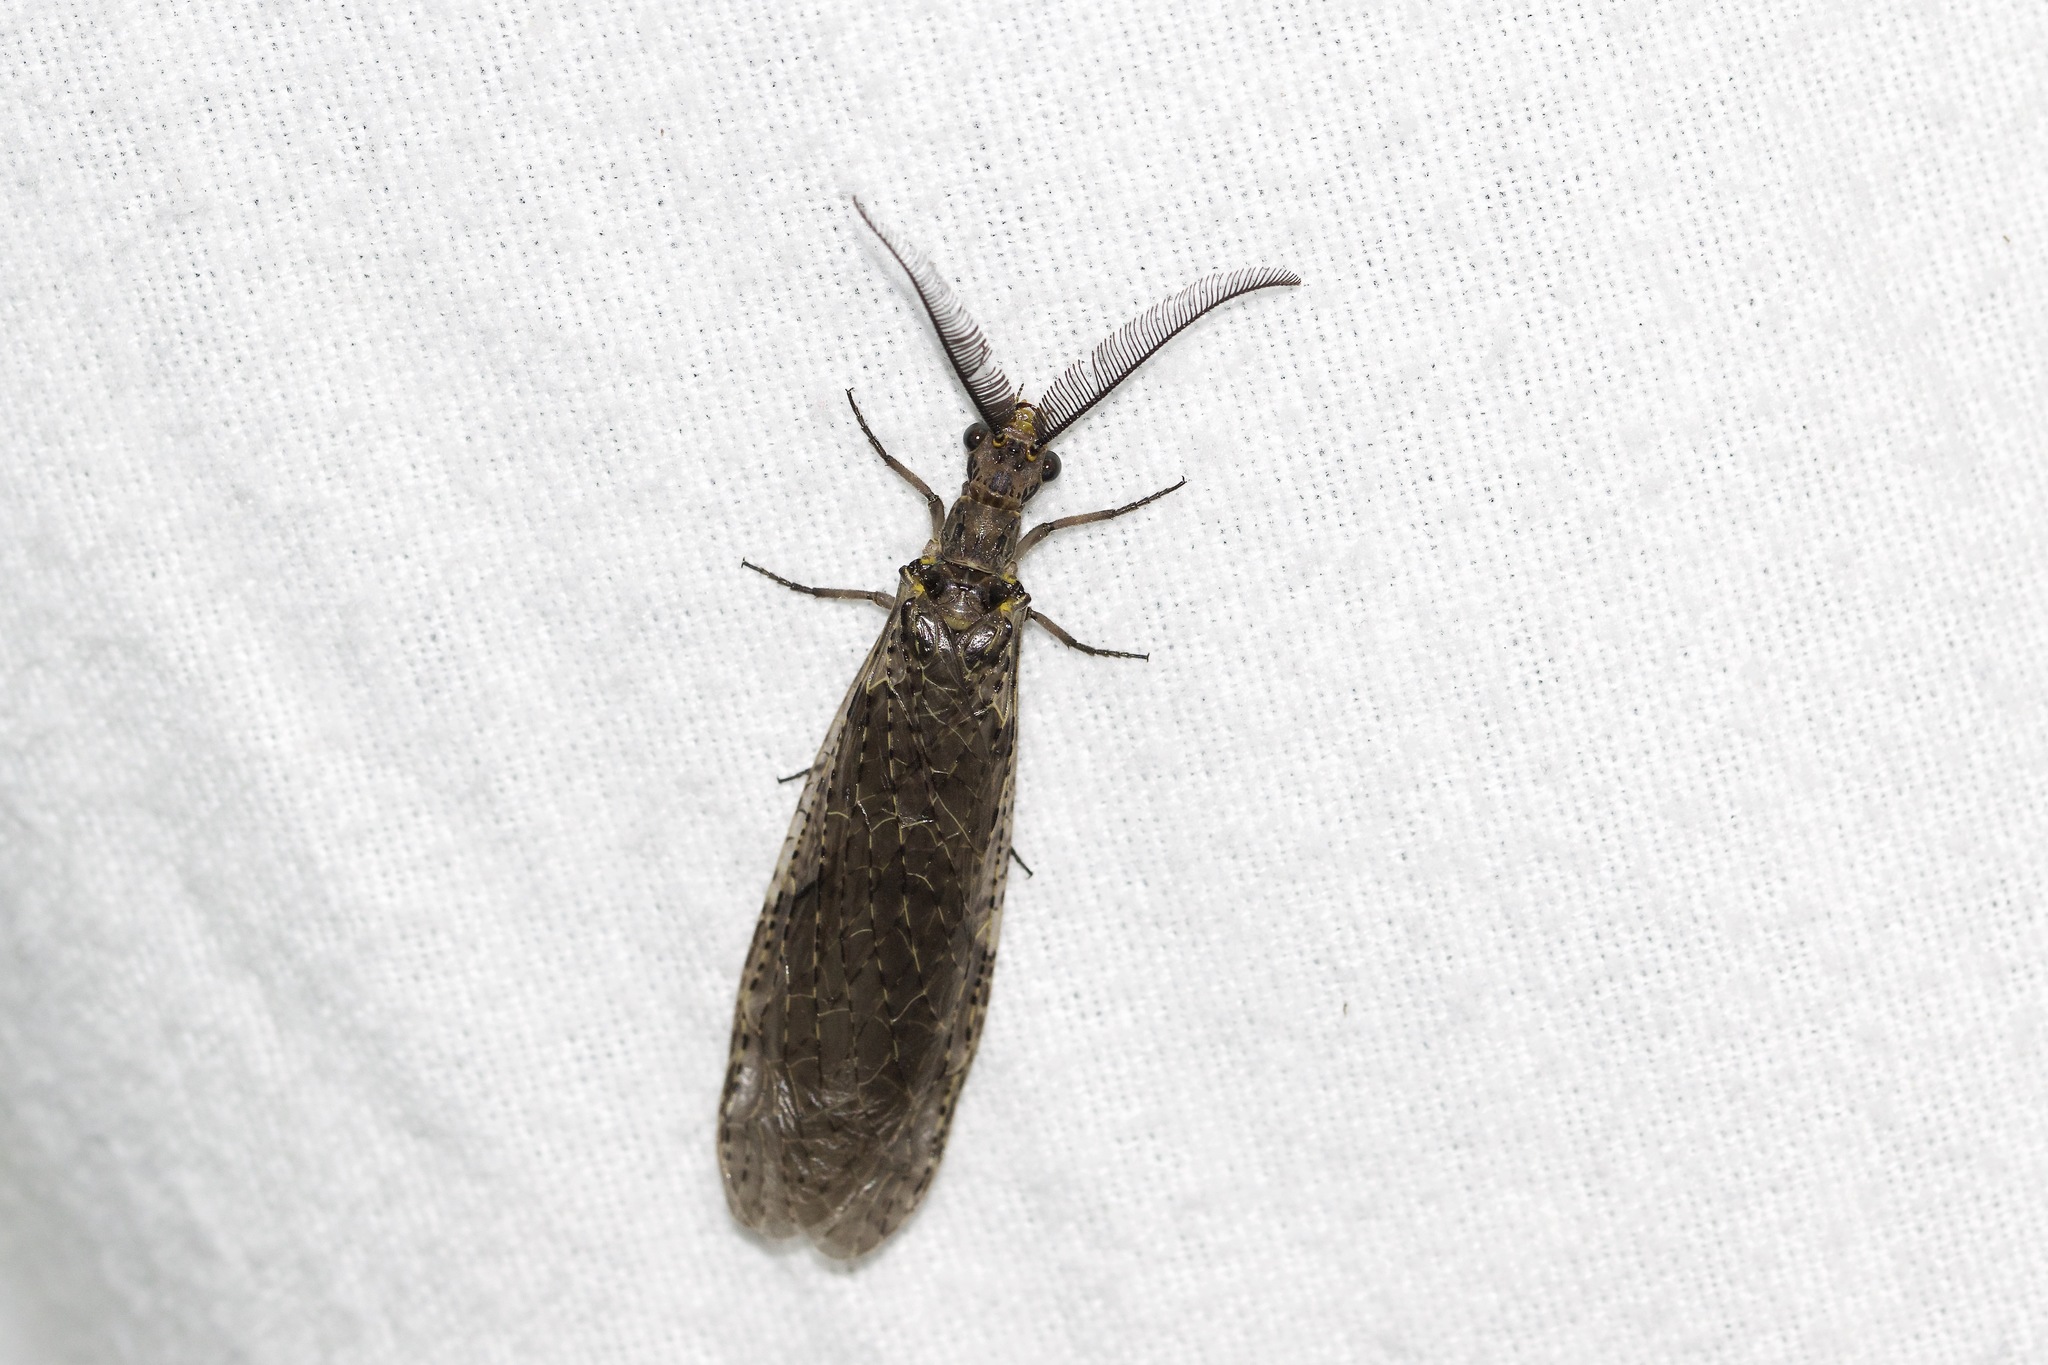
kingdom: Animalia
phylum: Arthropoda
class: Insecta
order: Megaloptera
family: Corydalidae
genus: Chauliodes
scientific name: Chauliodes rastricornis
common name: Spring fishfly
